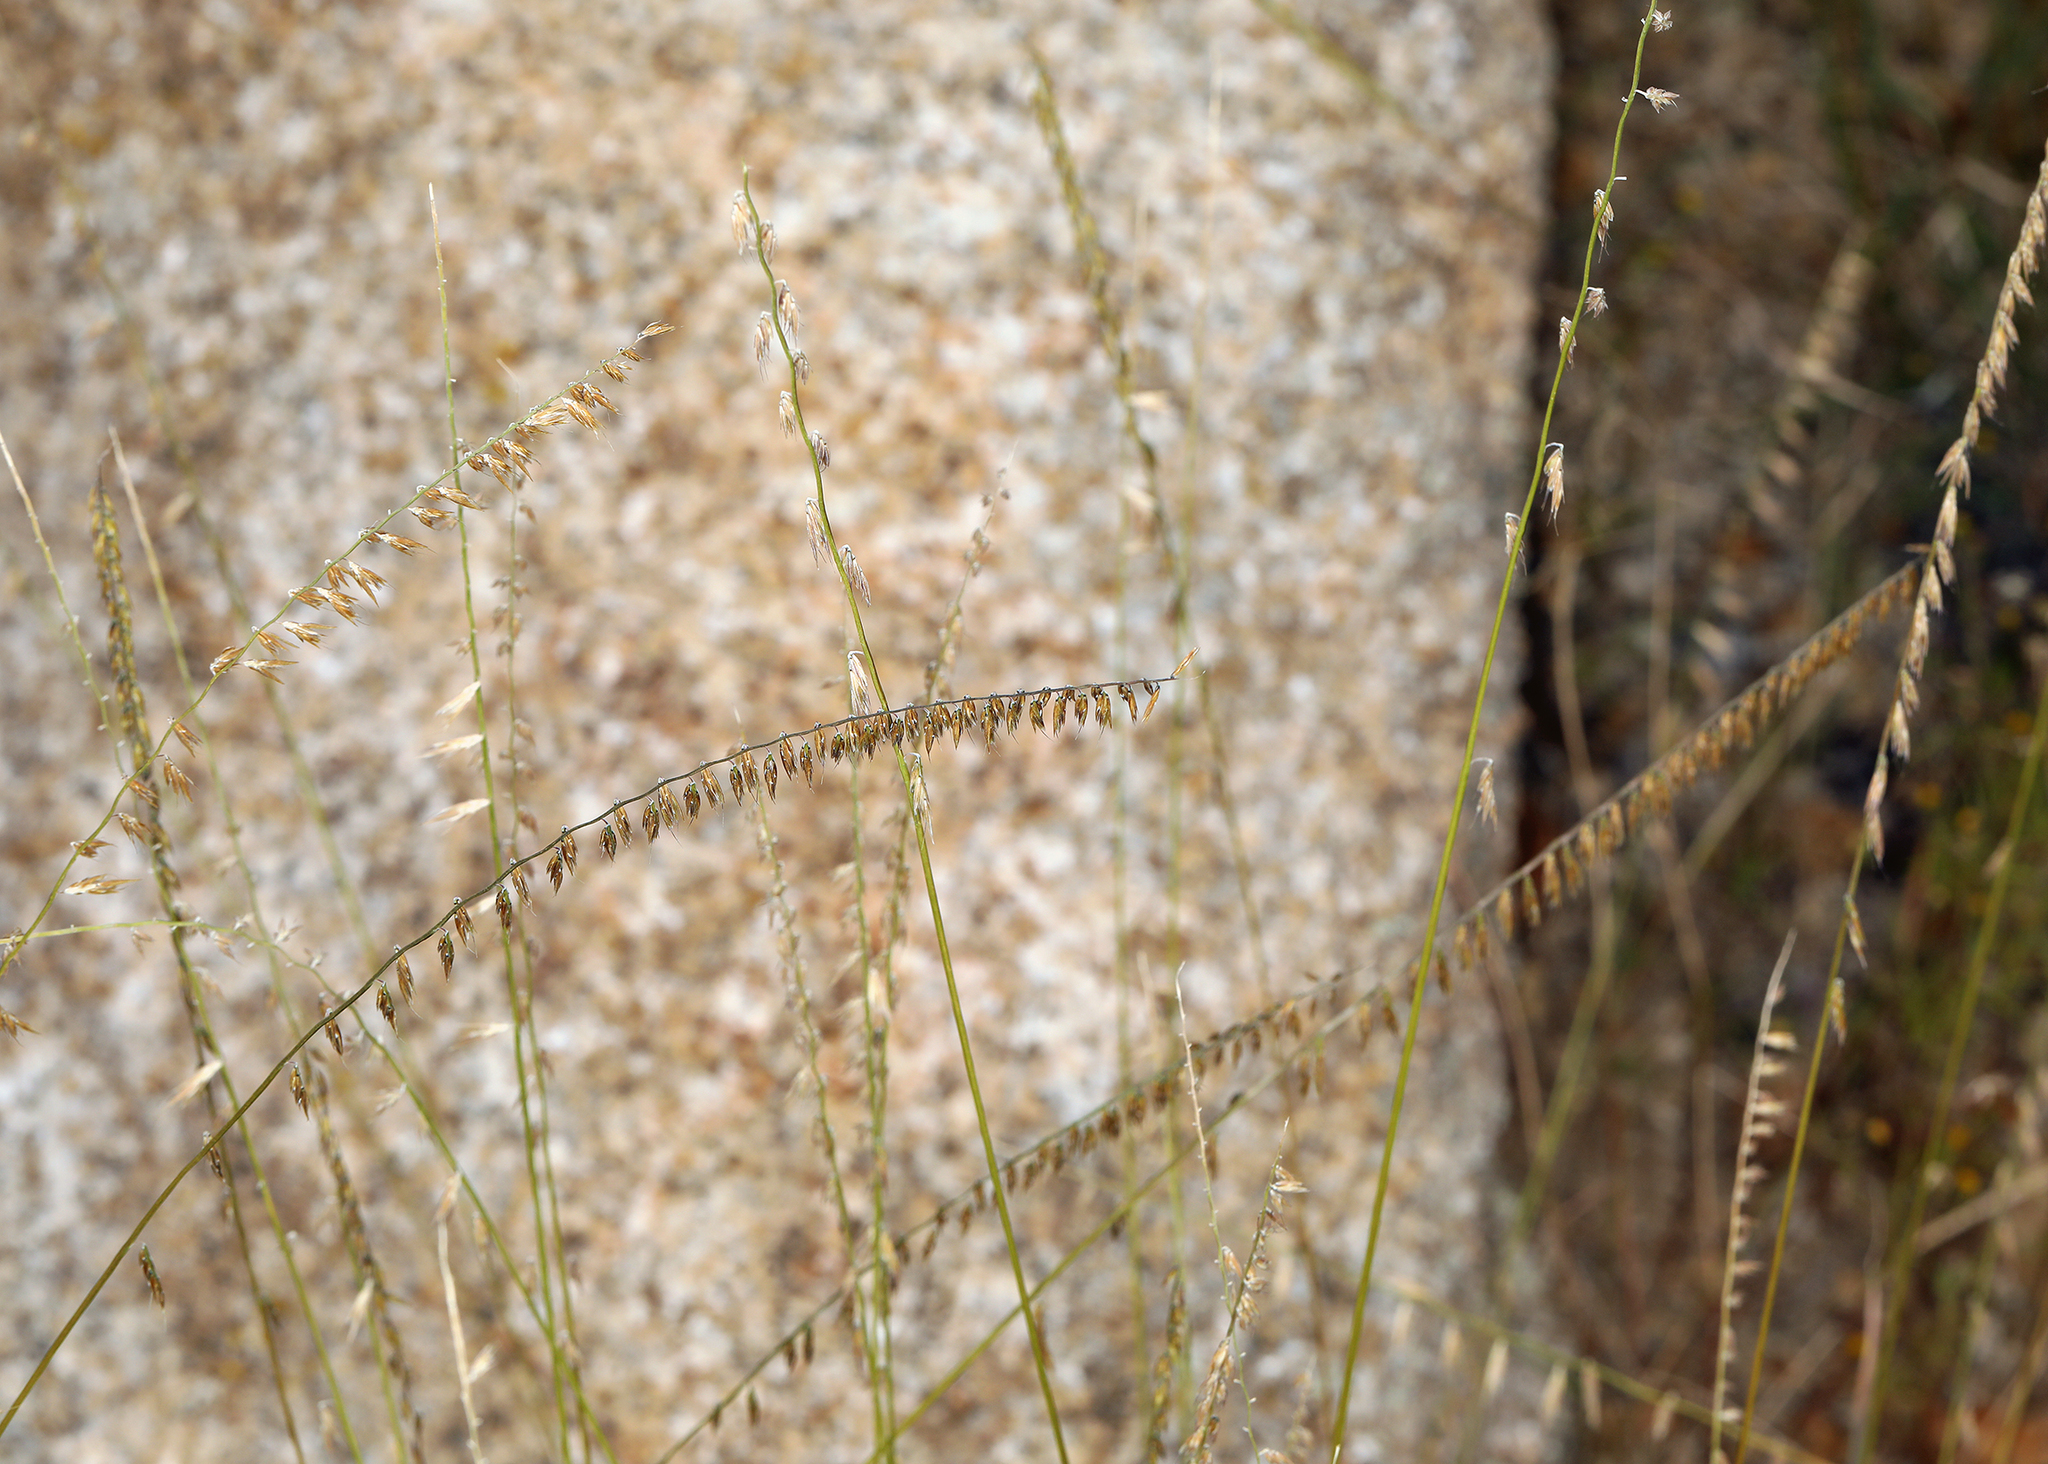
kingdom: Plantae
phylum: Tracheophyta
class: Liliopsida
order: Poales
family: Poaceae
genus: Bouteloua
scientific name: Bouteloua curtipendula
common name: Side-oats grama
